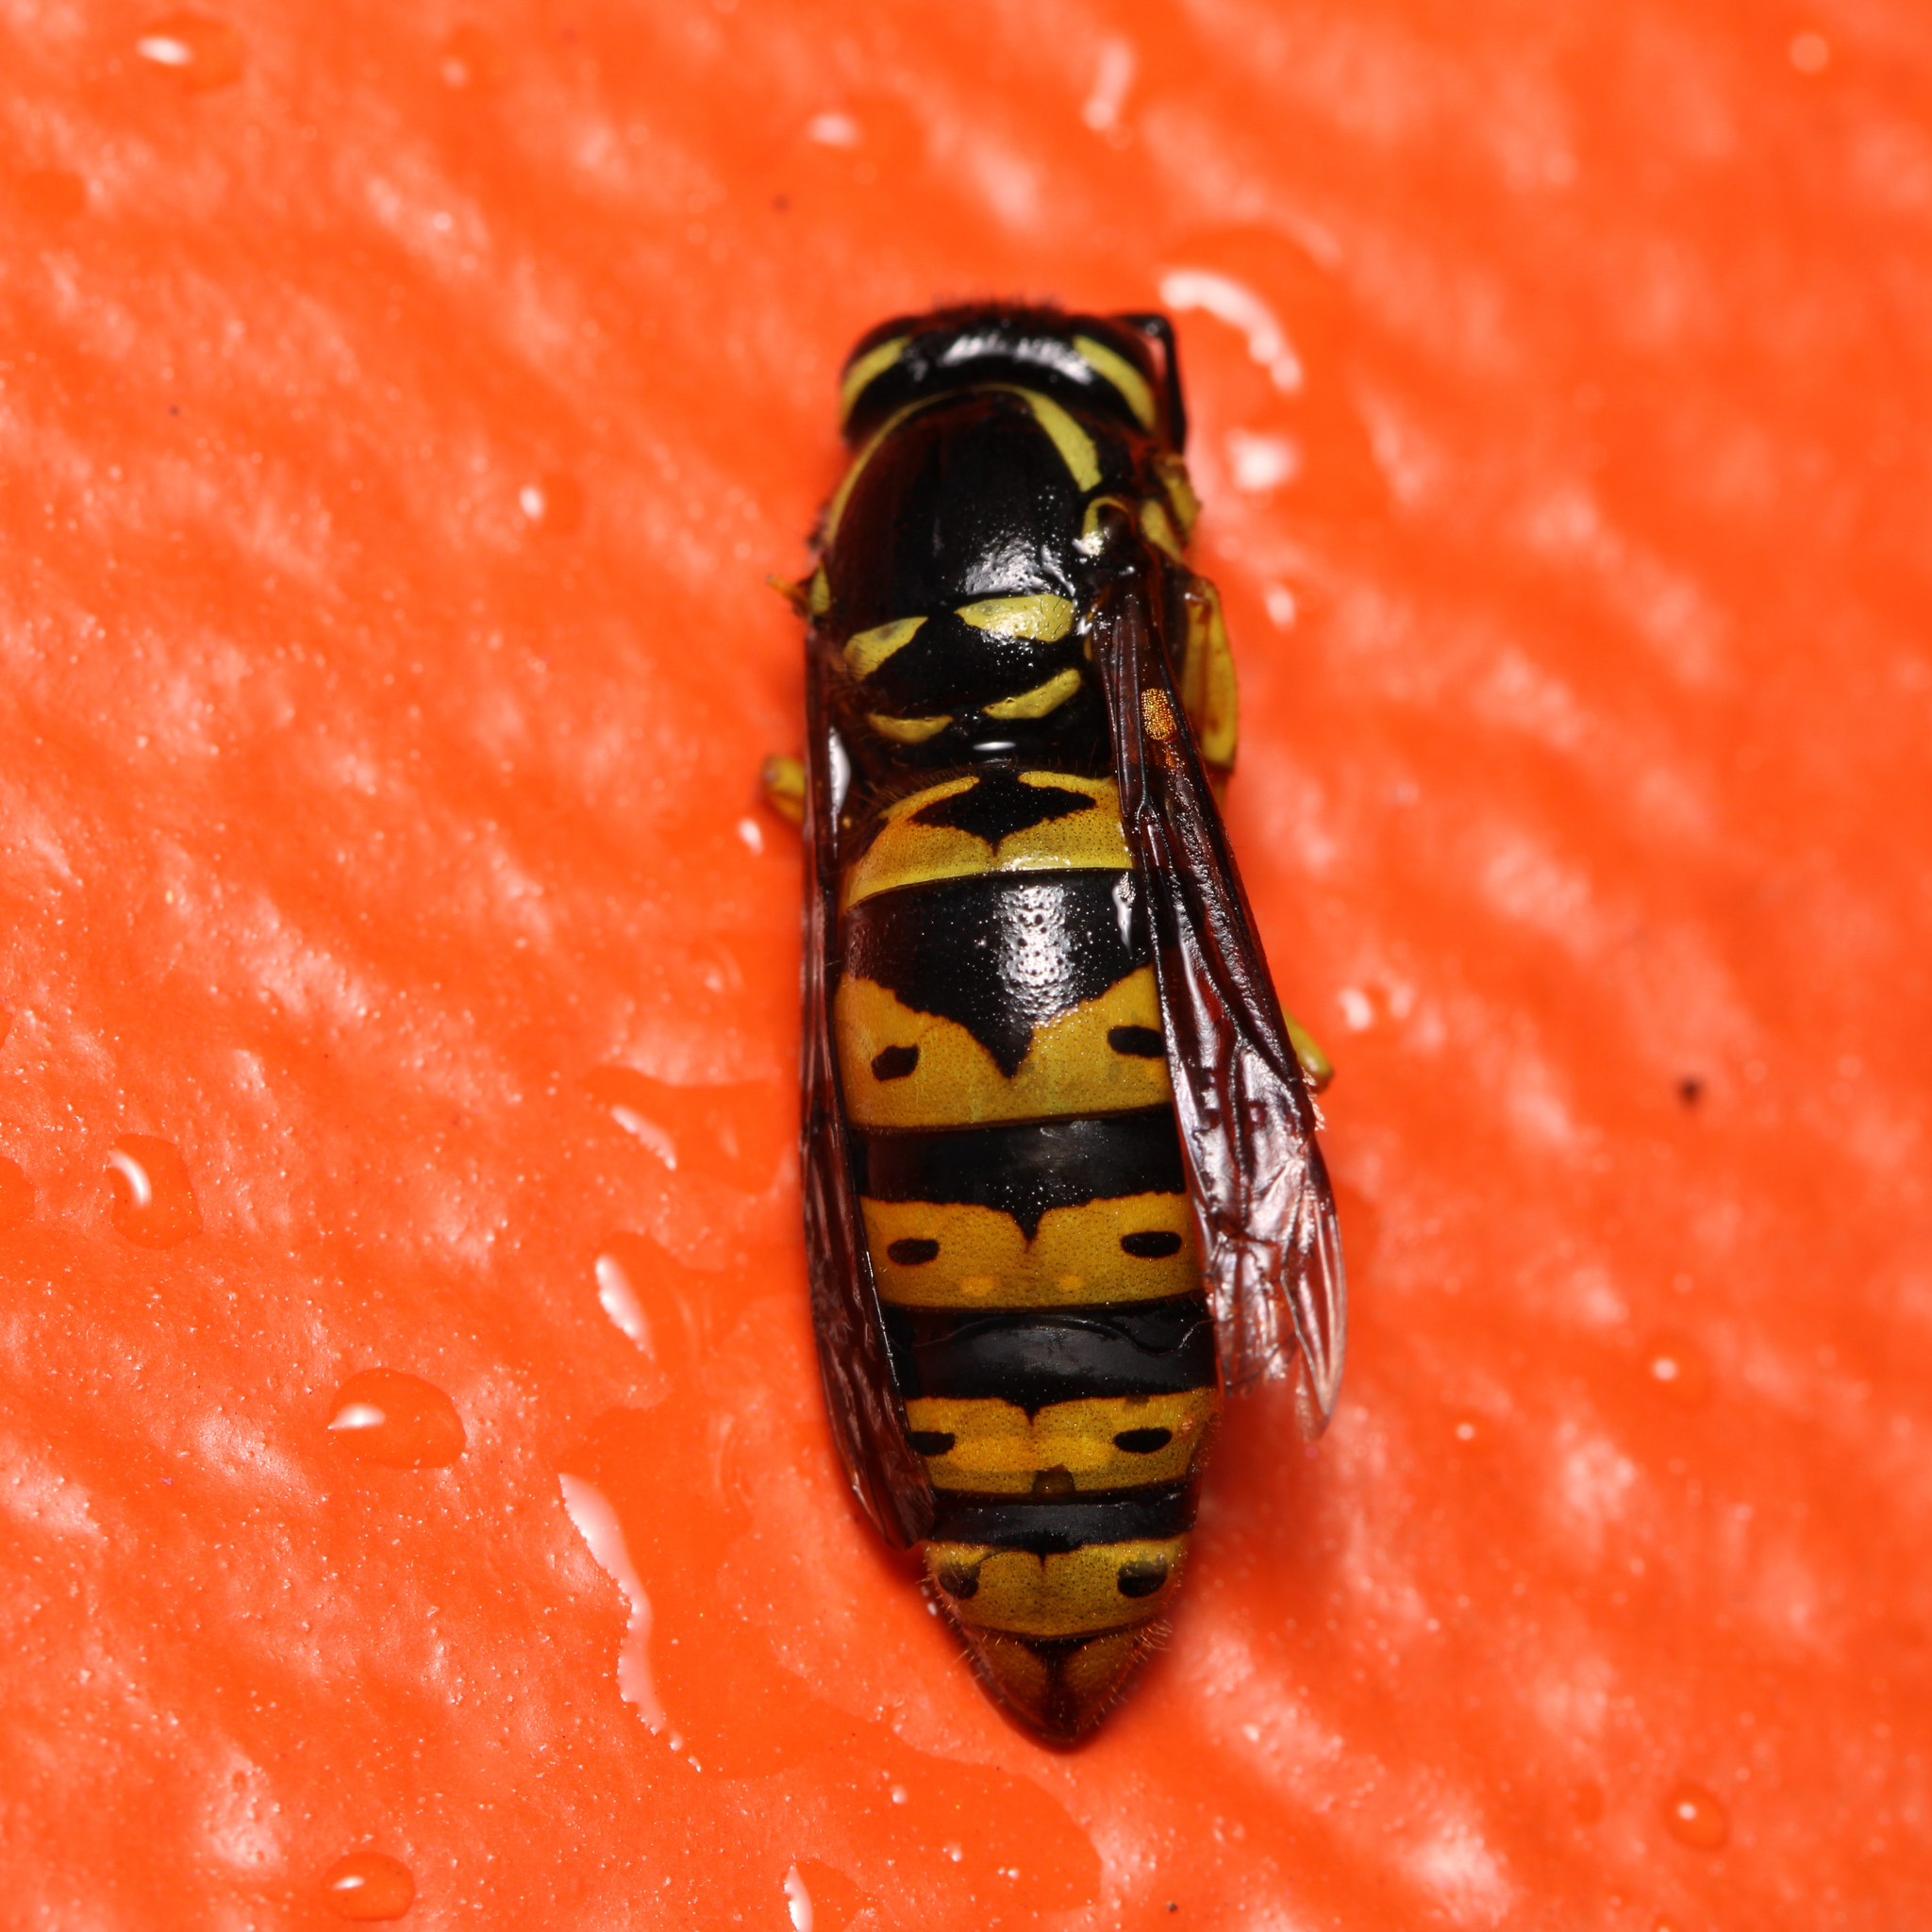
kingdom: Animalia
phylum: Arthropoda
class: Insecta
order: Hymenoptera
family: Vespidae
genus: Vespula
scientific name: Vespula maculifrons
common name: Eastern yellowjacket
